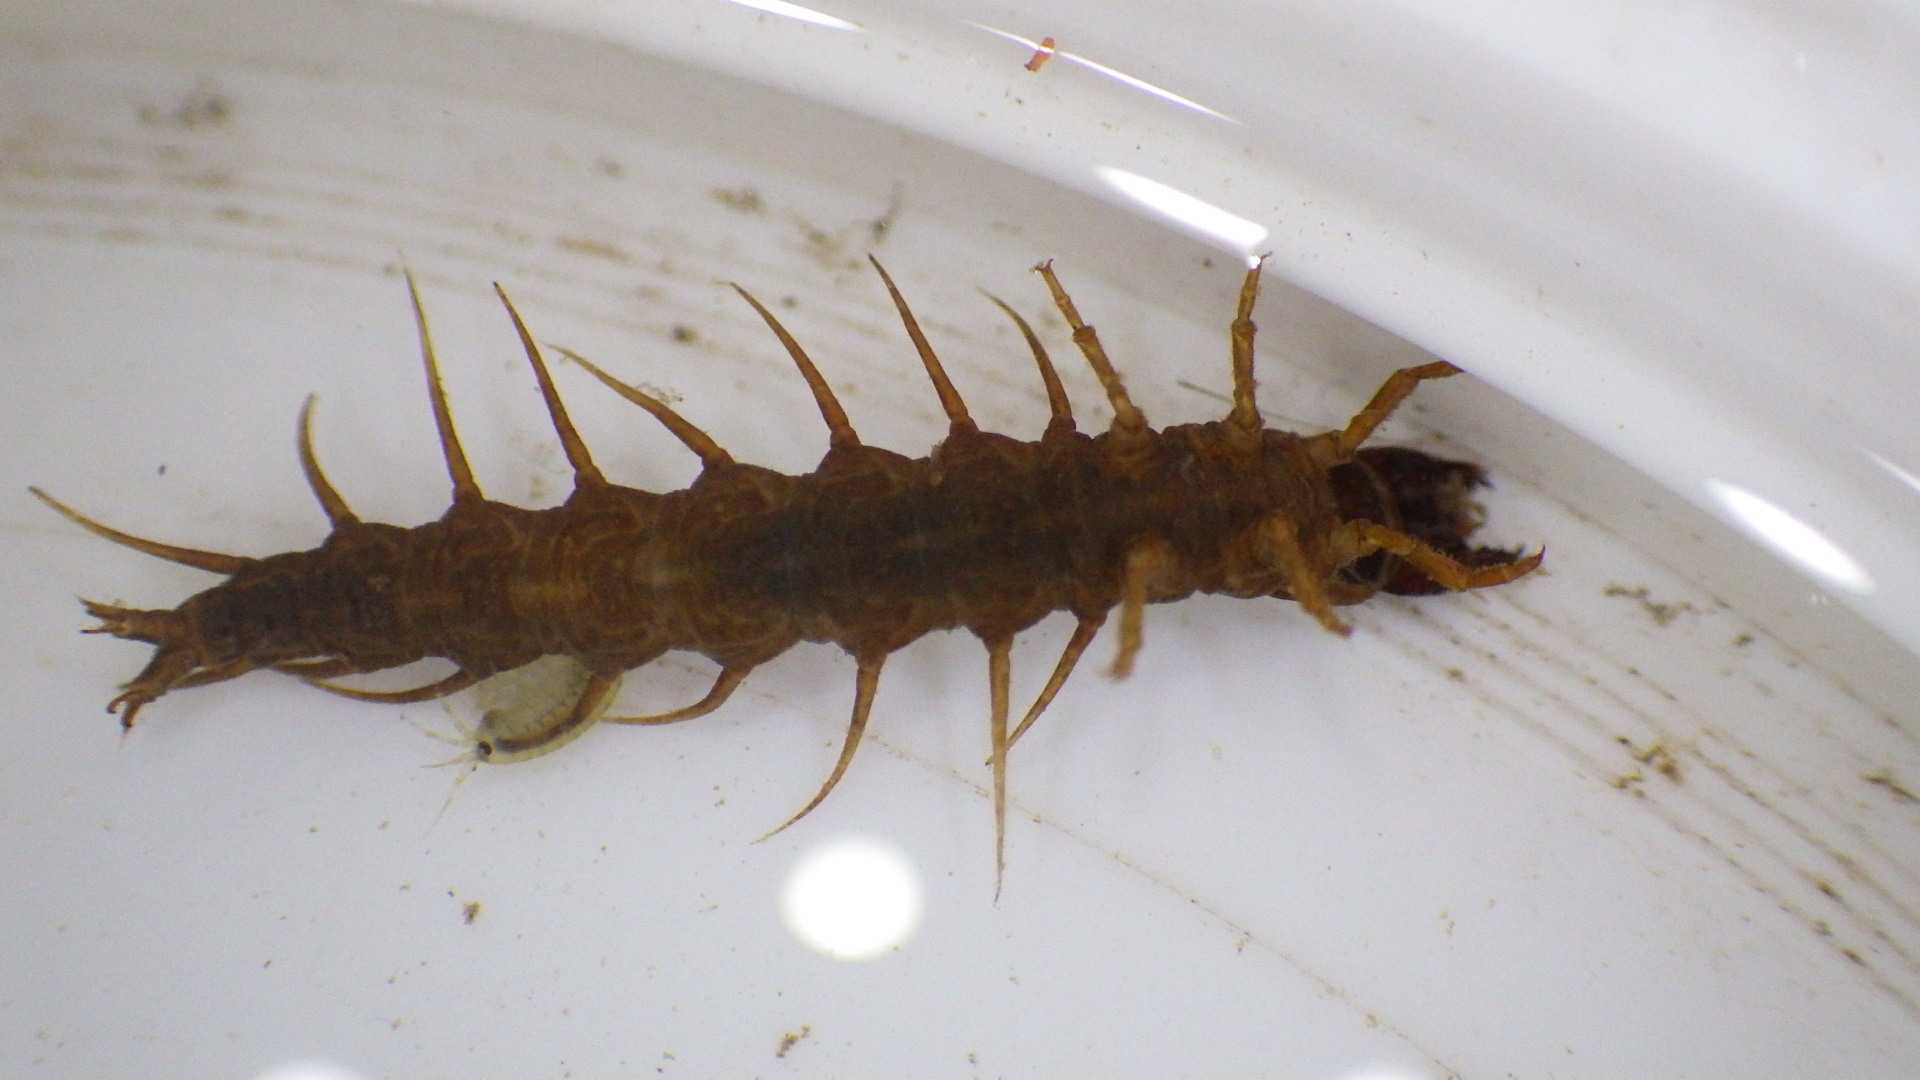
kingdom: Animalia
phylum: Arthropoda
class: Insecta
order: Megaloptera
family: Corydalidae
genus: Nigronia
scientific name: Nigronia serricornis
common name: Serrate dark fishfly
